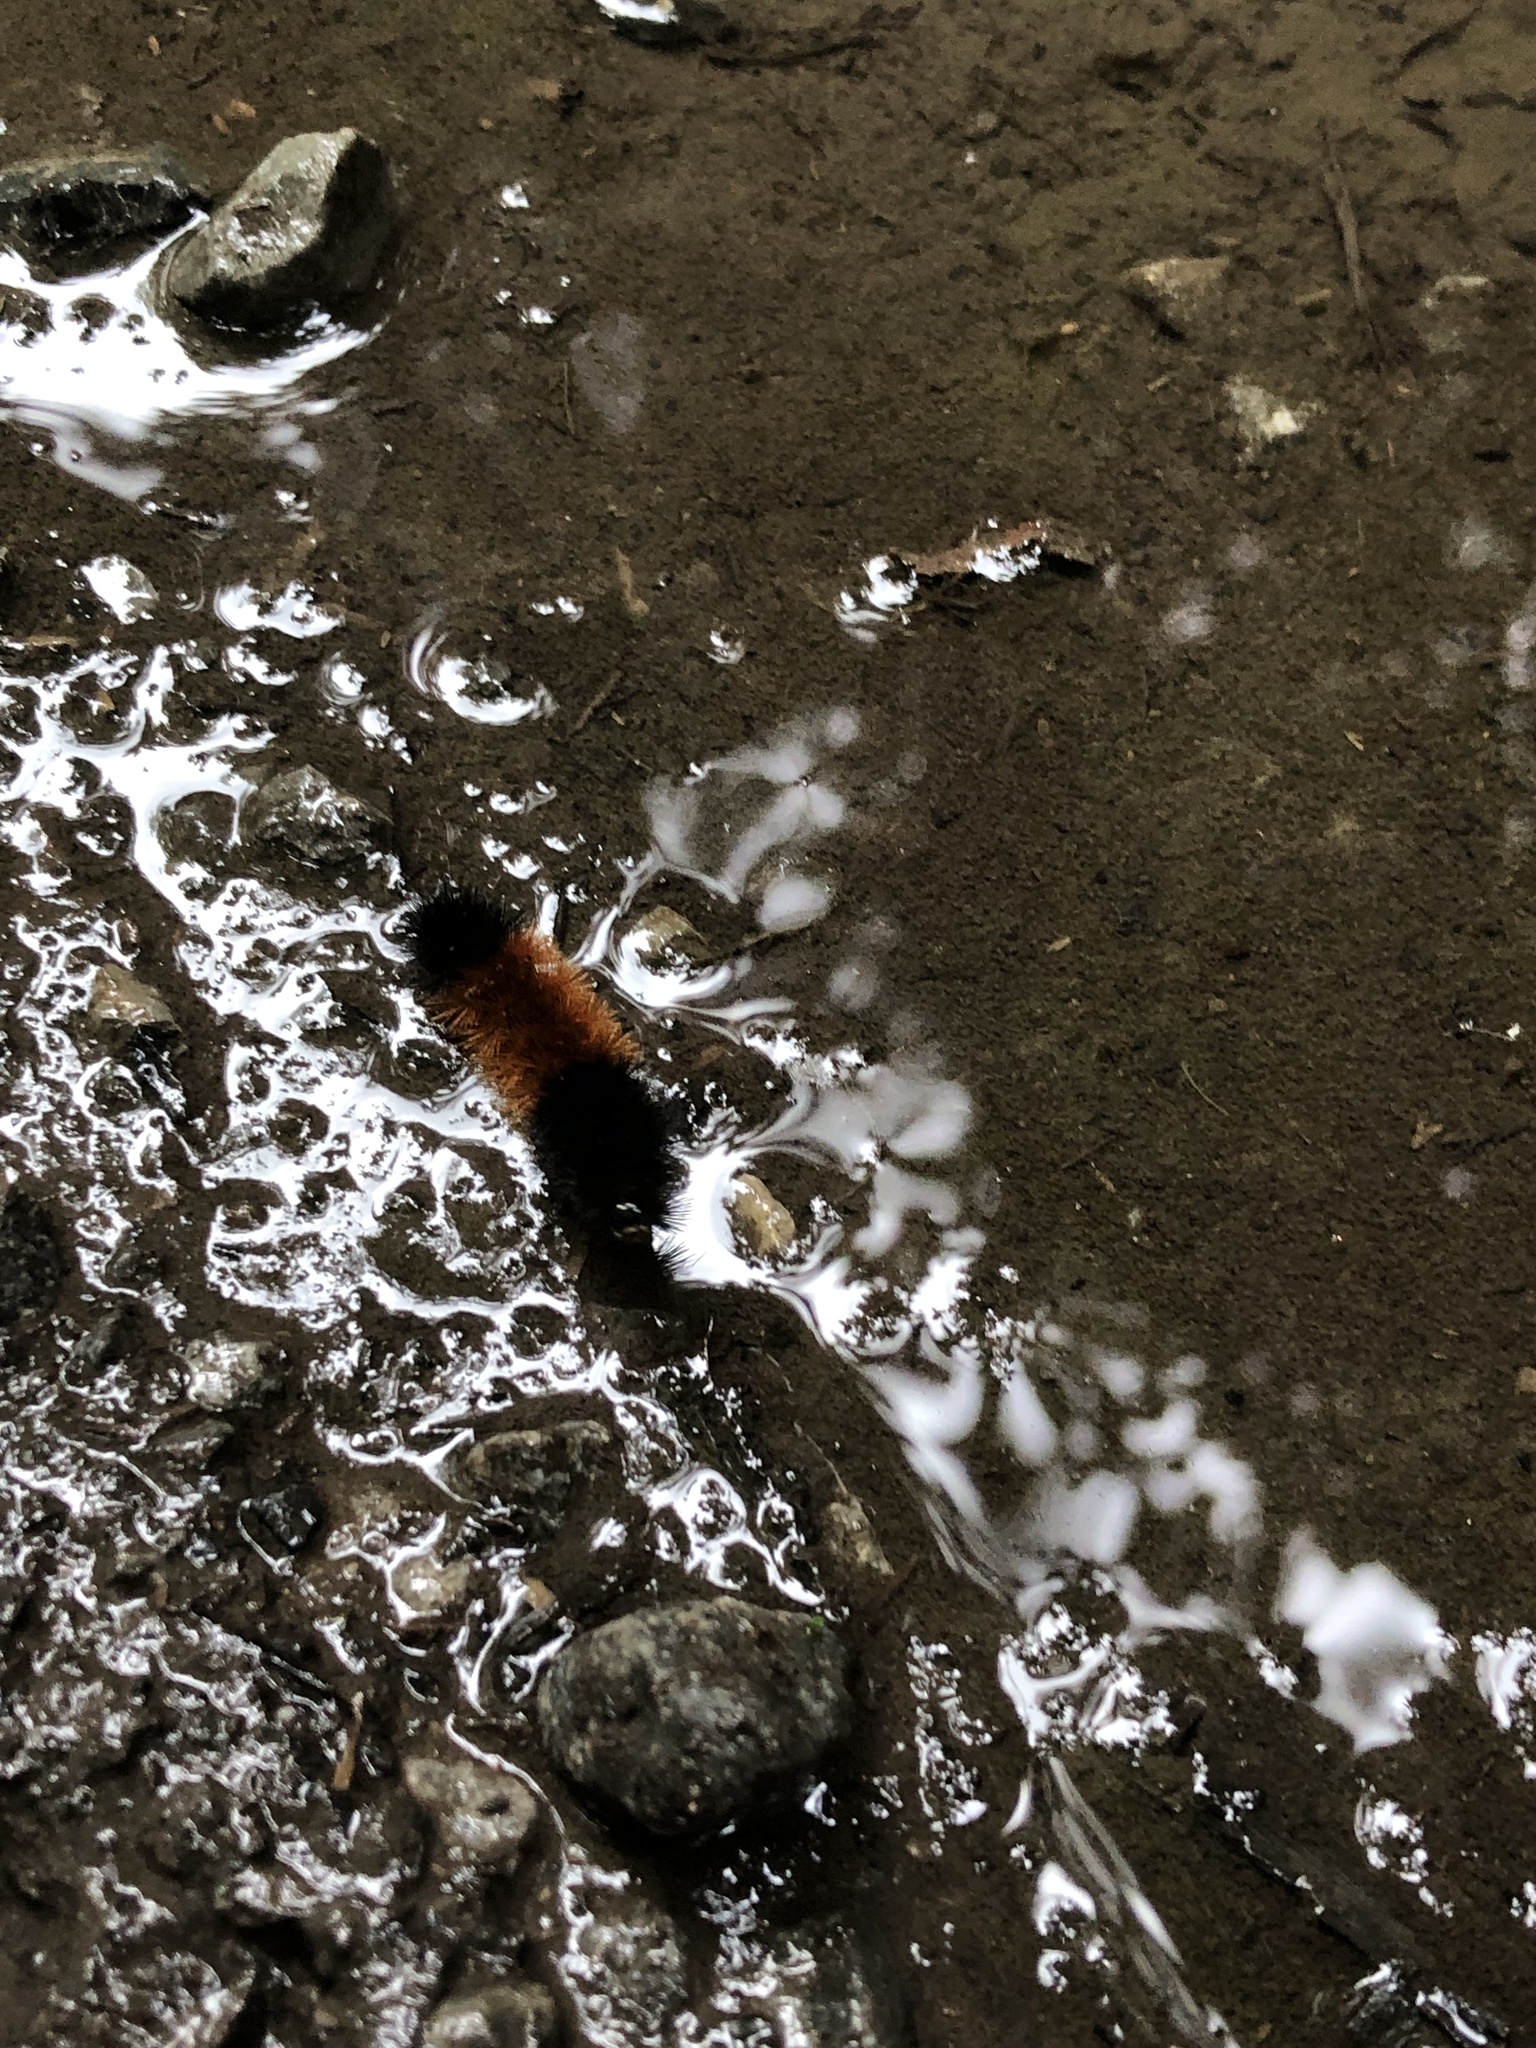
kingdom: Animalia
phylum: Arthropoda
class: Insecta
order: Lepidoptera
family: Erebidae
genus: Pyrrharctia
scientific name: Pyrrharctia isabella
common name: Isabella tiger moth
